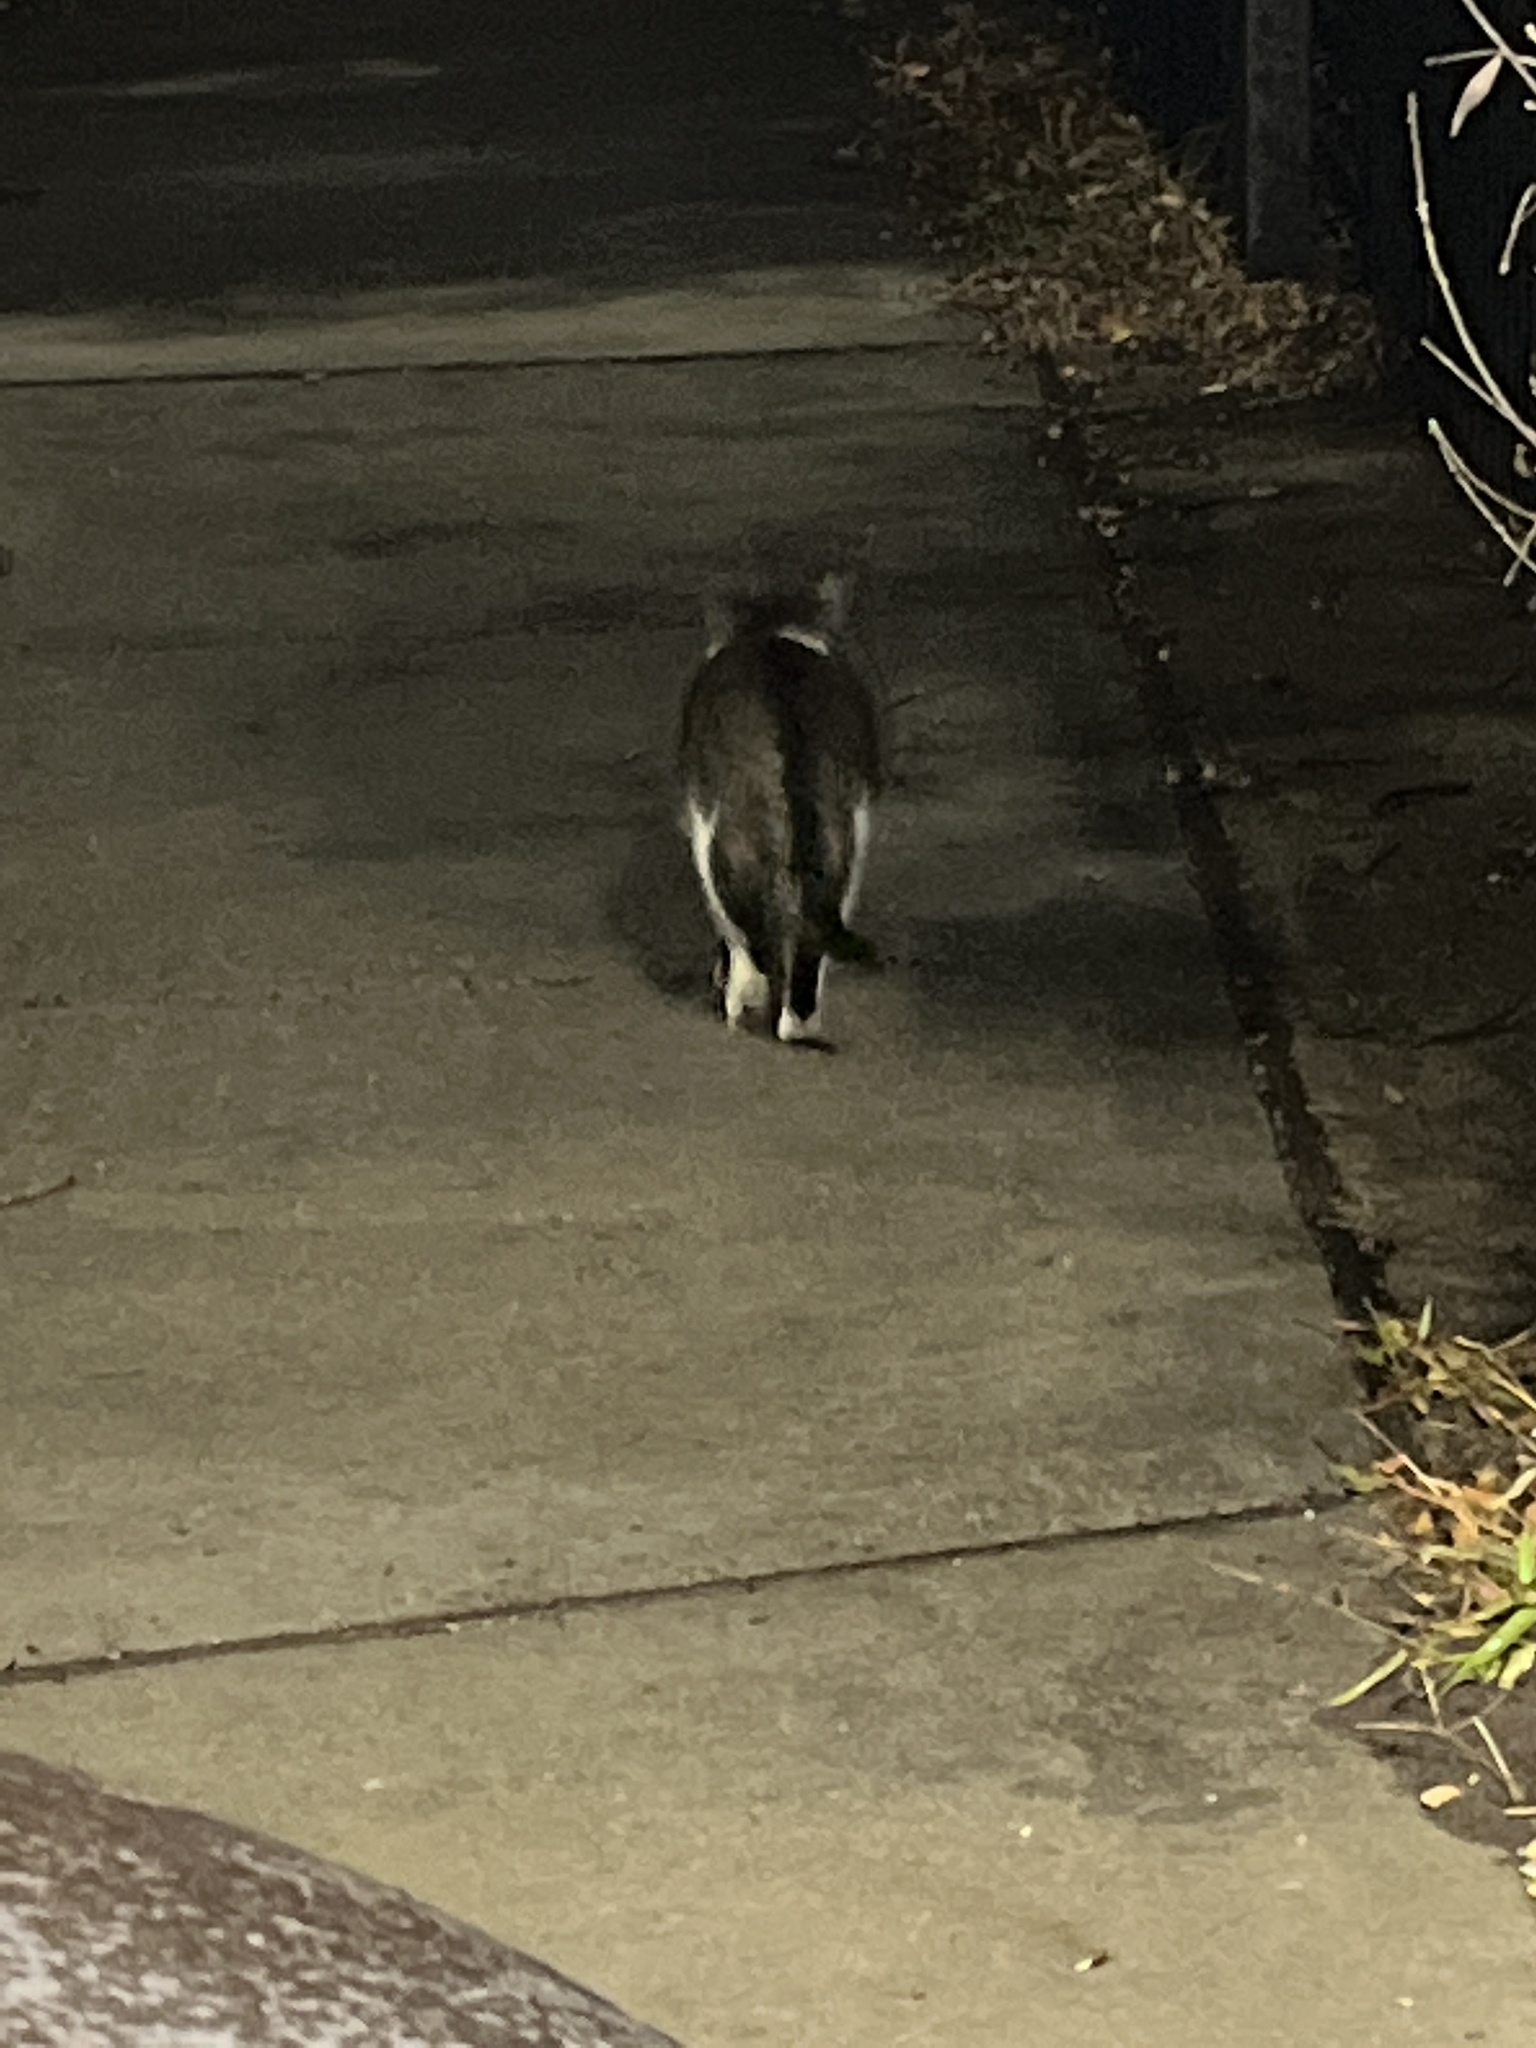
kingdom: Animalia
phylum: Chordata
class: Mammalia
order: Carnivora
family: Felidae
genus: Felis
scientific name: Felis catus
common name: Domestic cat
